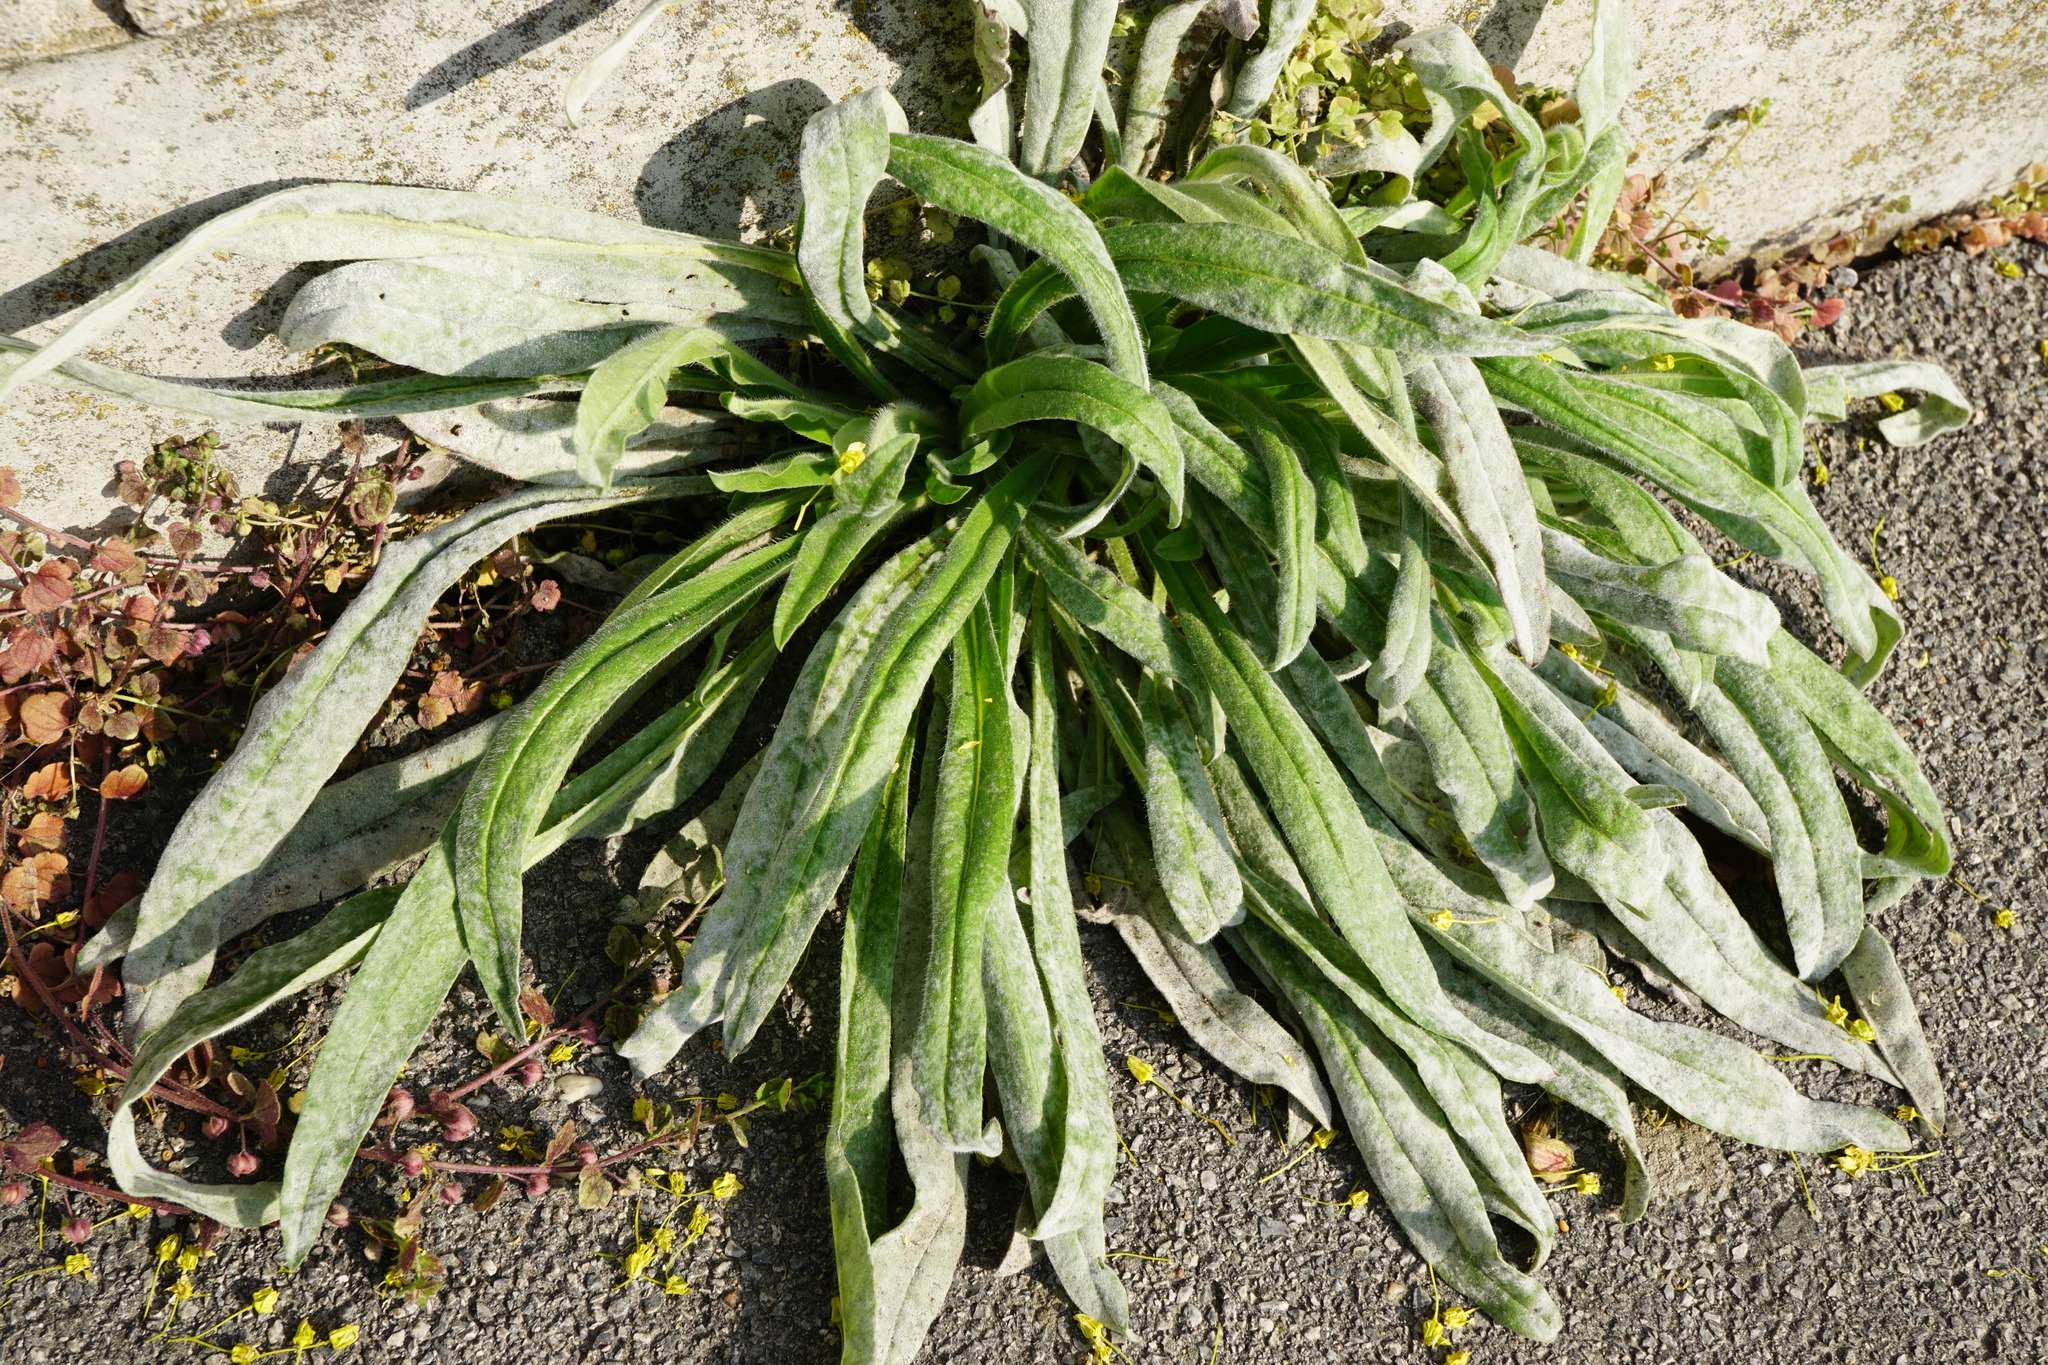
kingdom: Plantae
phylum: Tracheophyta
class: Magnoliopsida
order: Boraginales
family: Boraginaceae
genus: Anchusa
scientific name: Anchusa officinalis
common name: Alkanet
